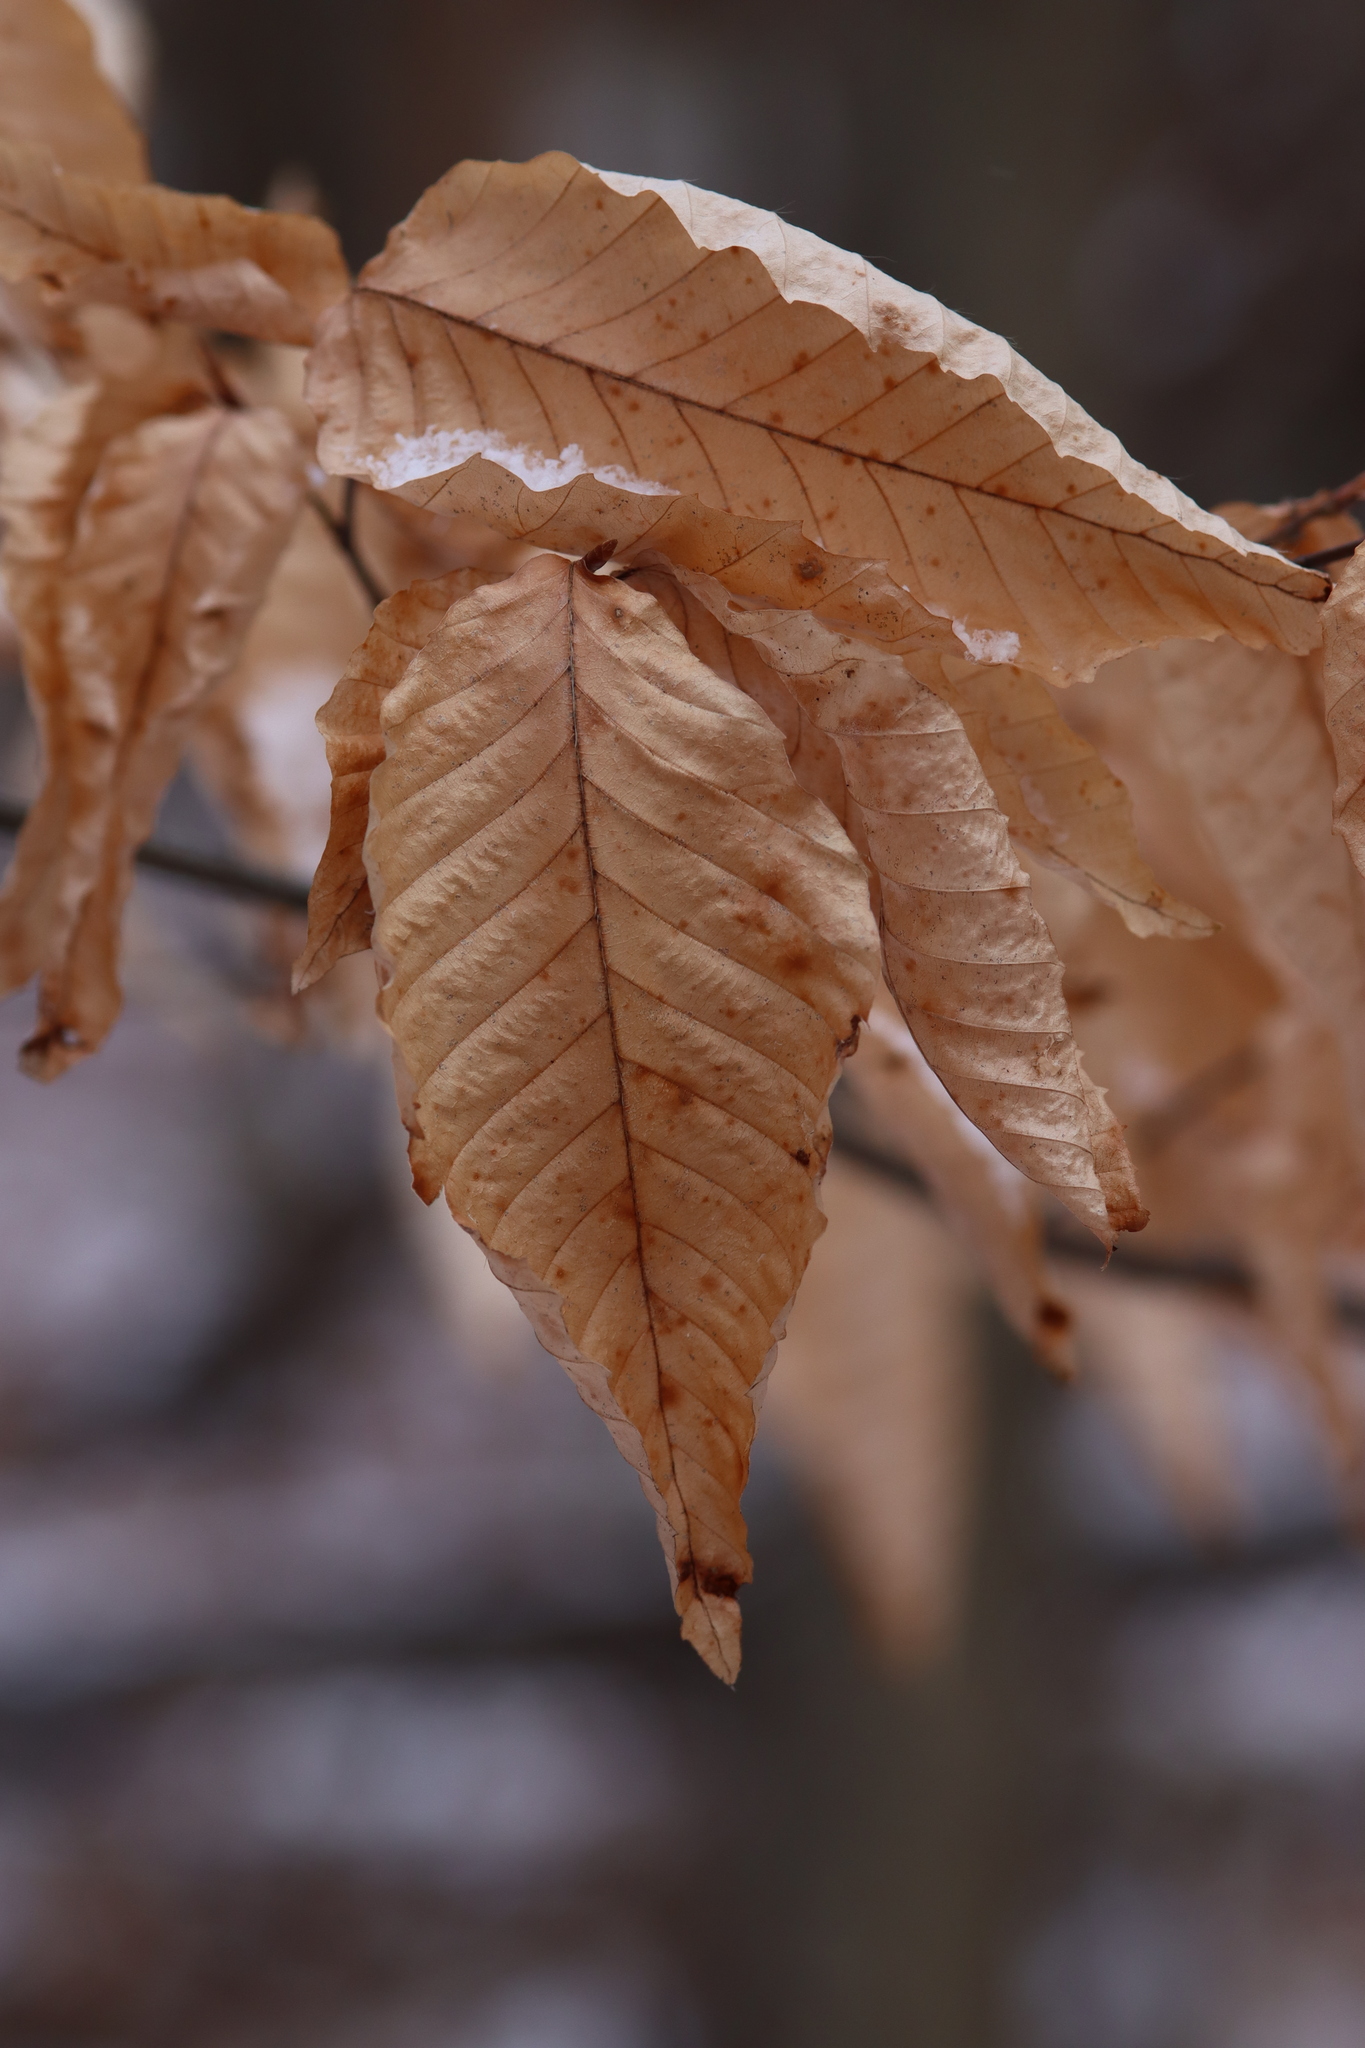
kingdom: Plantae
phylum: Tracheophyta
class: Magnoliopsida
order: Fagales
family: Fagaceae
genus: Fagus
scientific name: Fagus grandifolia
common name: American beech
